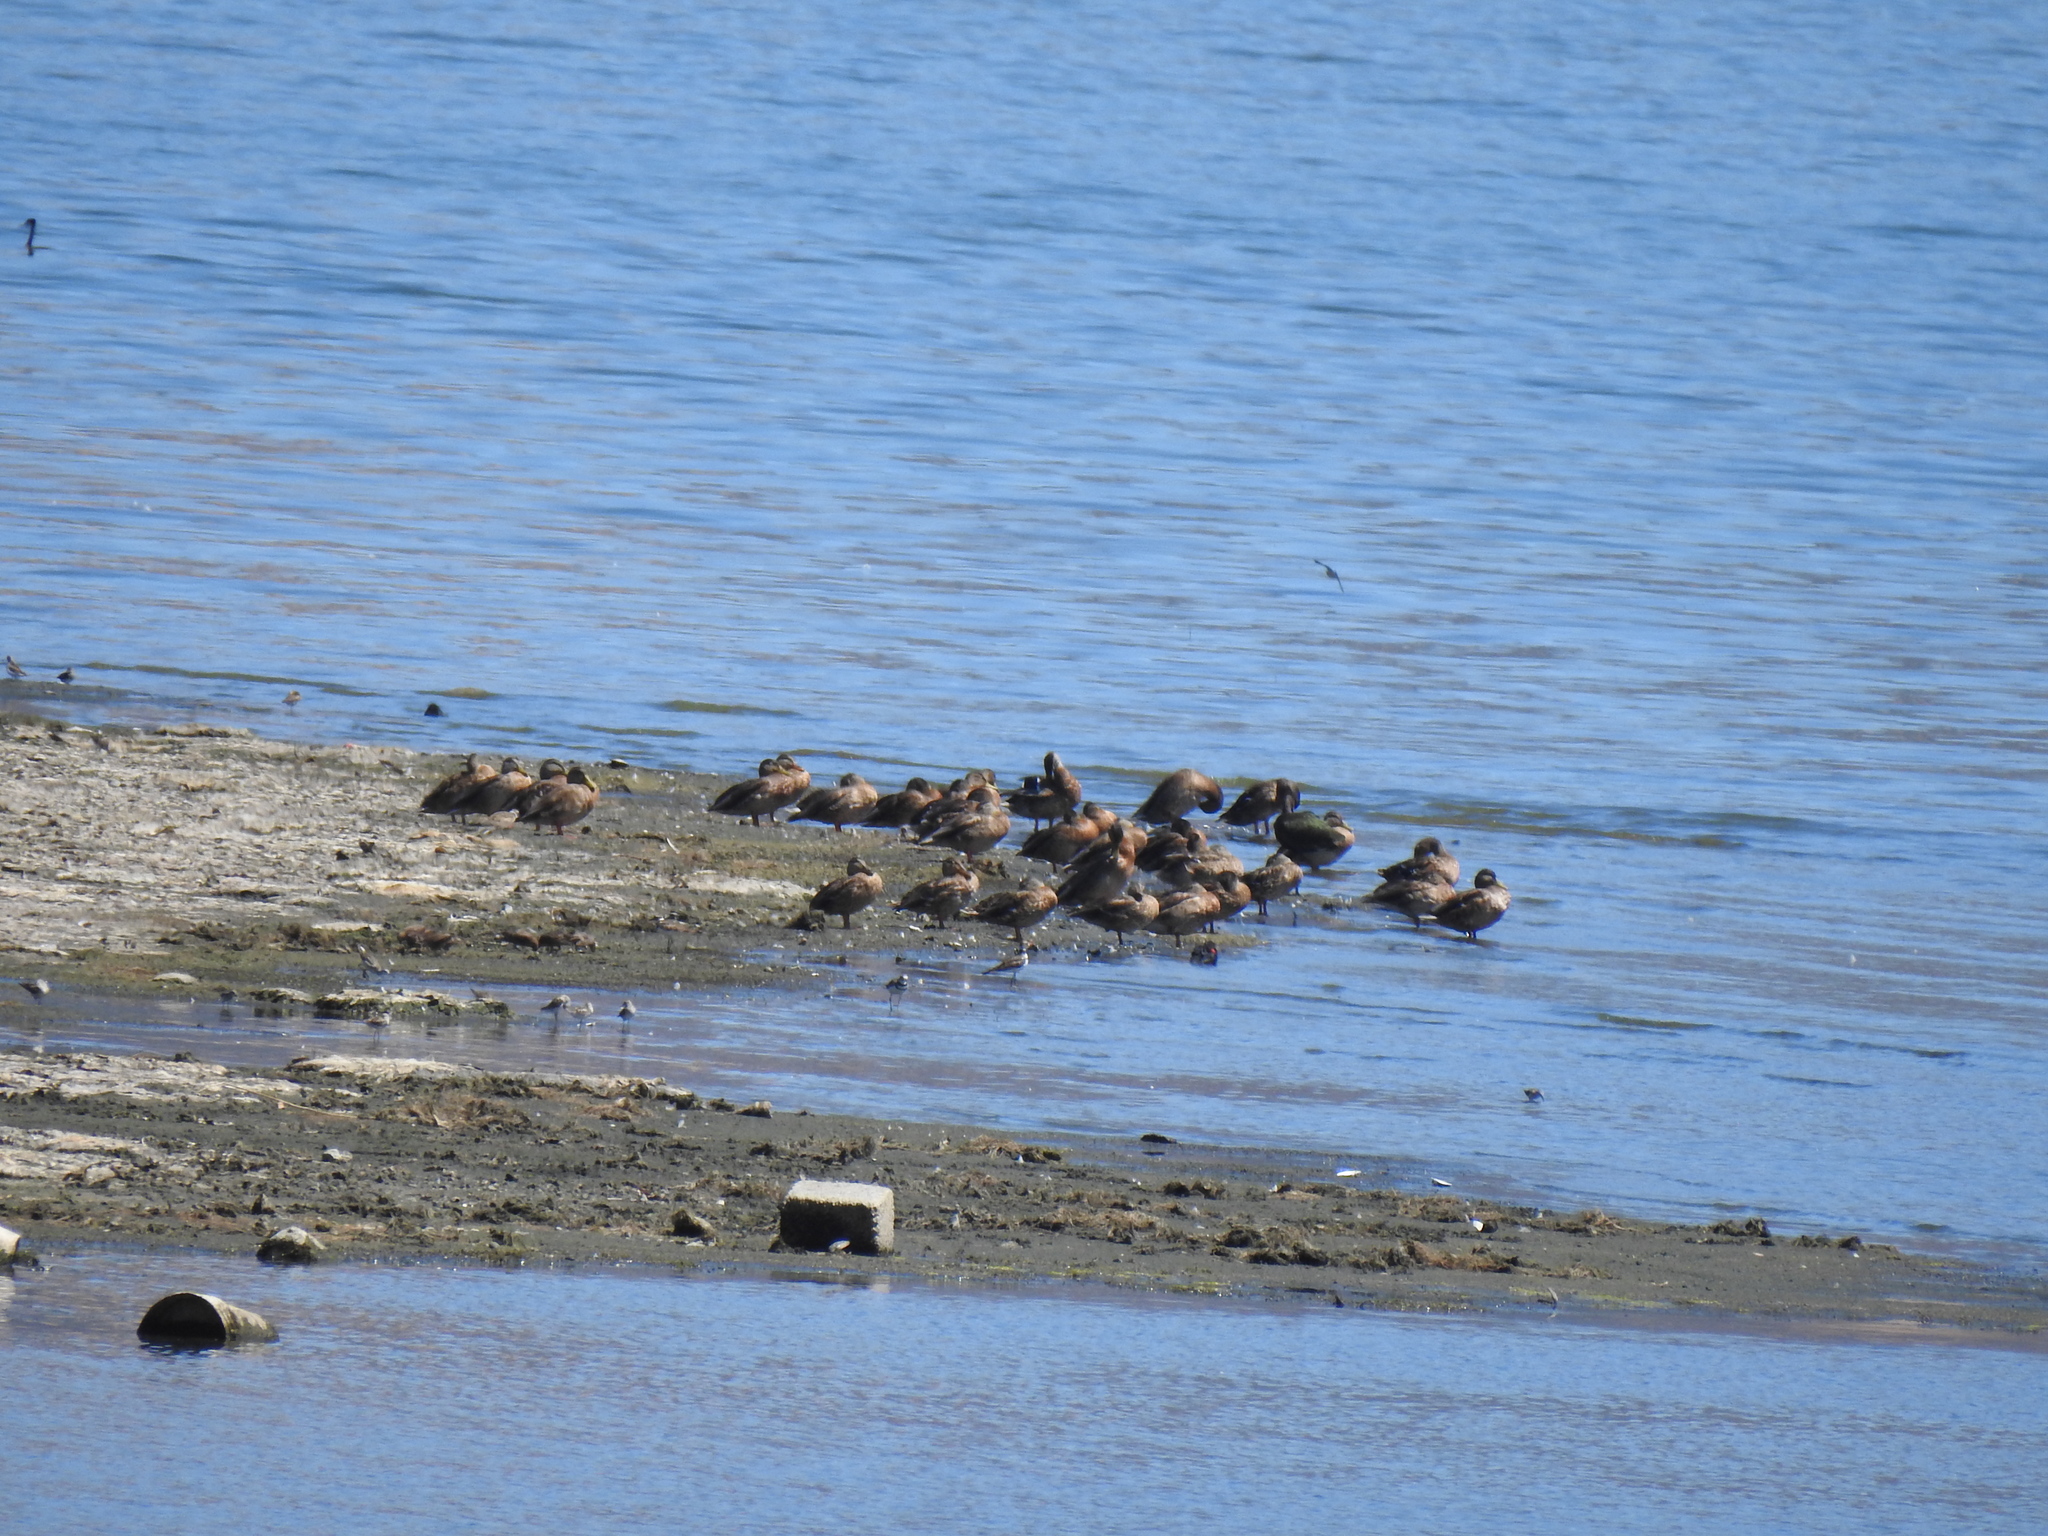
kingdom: Animalia
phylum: Chordata
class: Aves
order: Anseriformes
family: Anatidae
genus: Anas
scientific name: Anas platyrhynchos
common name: Mallard
